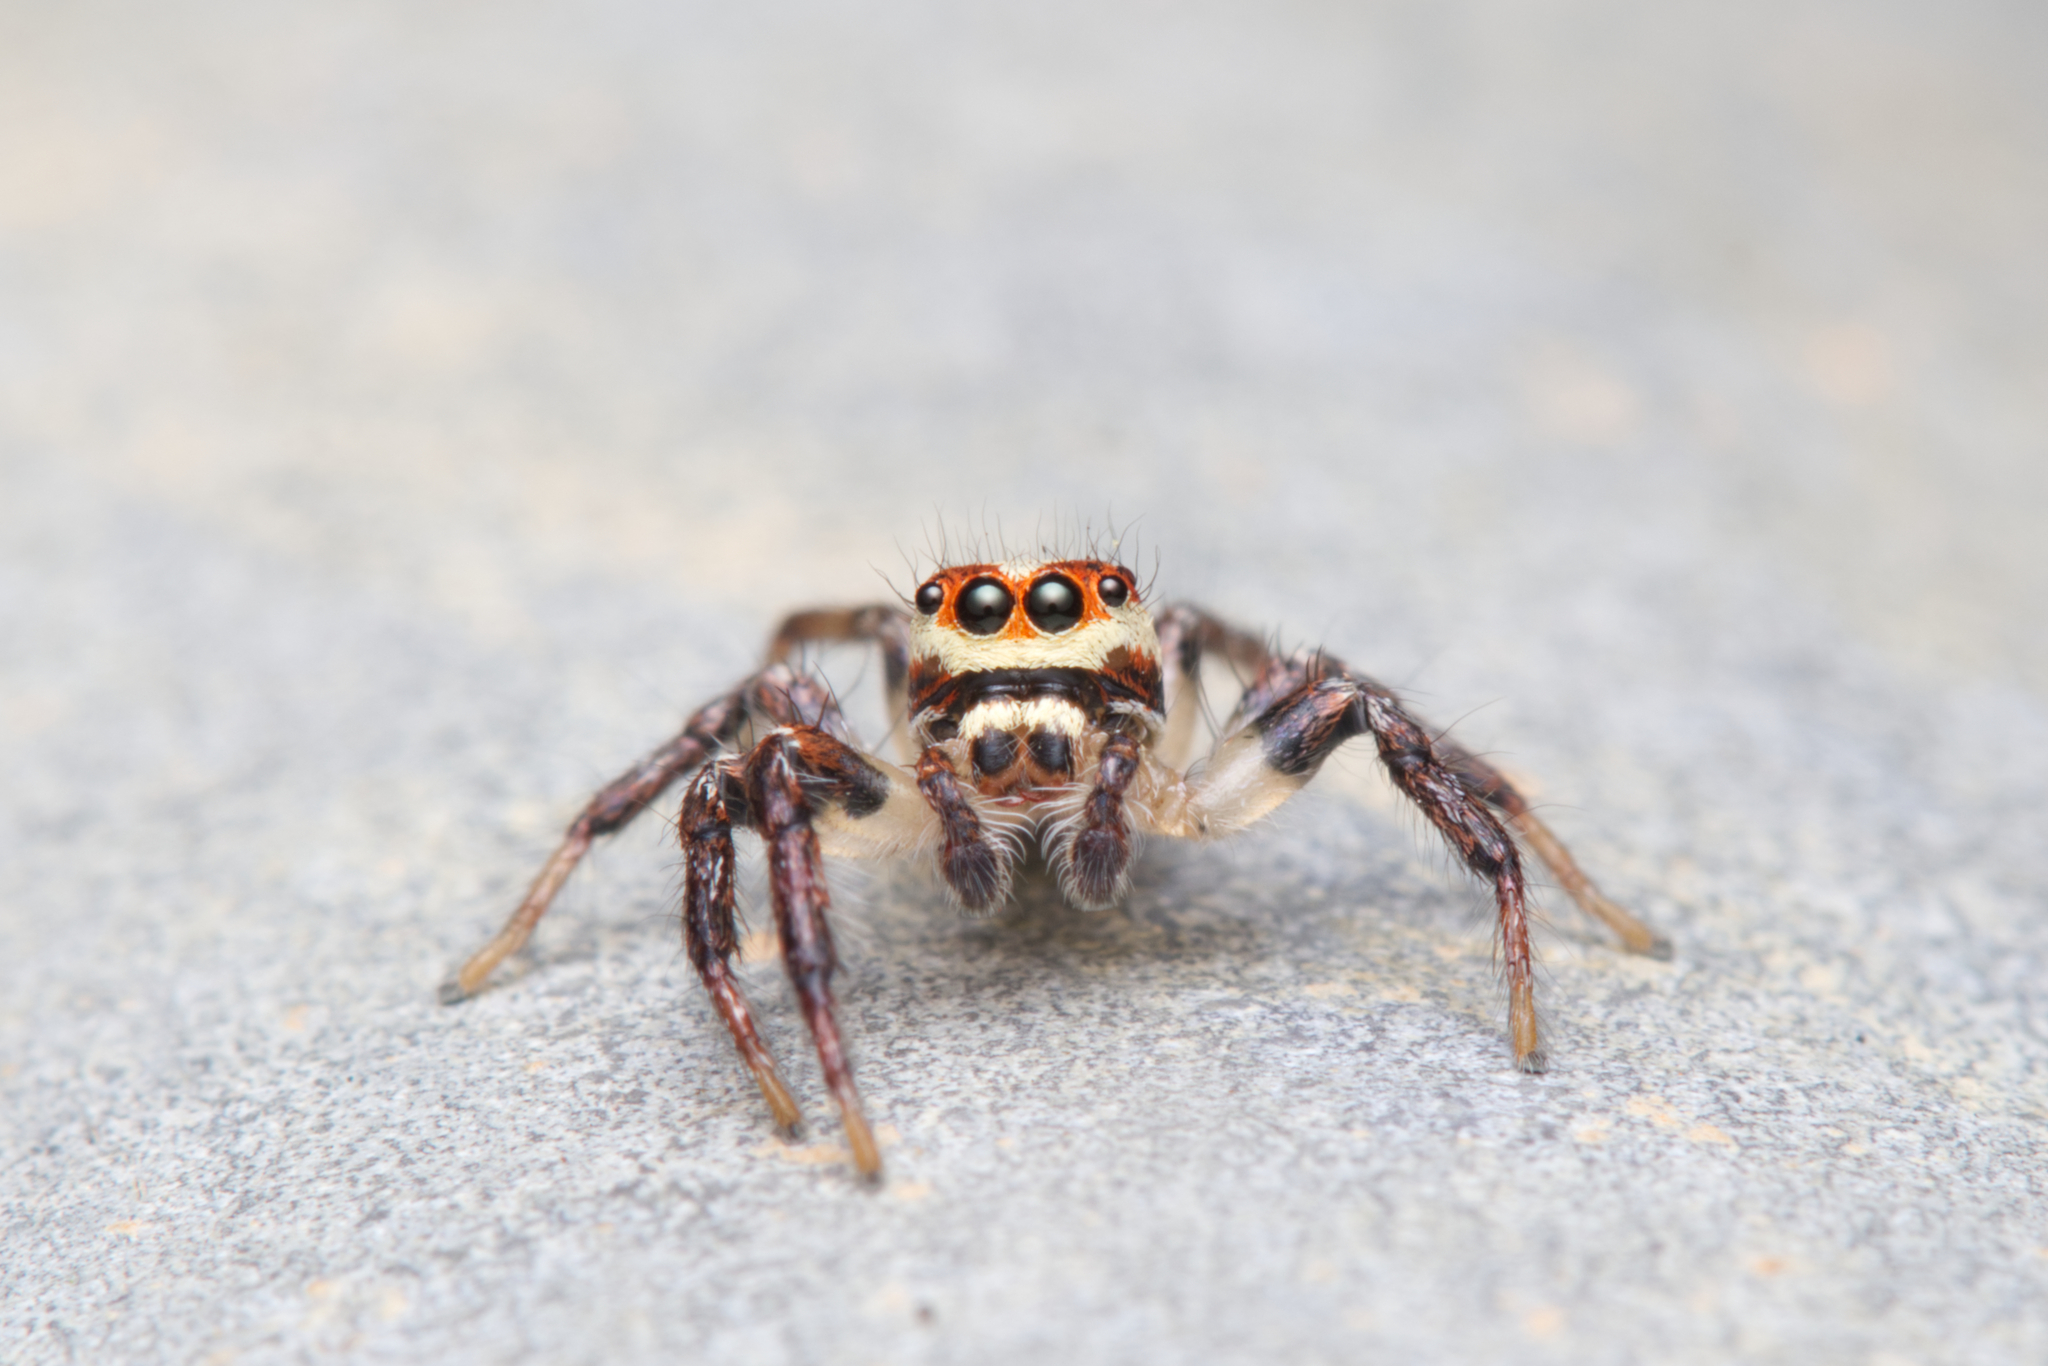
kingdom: Animalia
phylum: Arthropoda
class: Arachnida
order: Araneae
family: Salticidae
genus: Cytaea
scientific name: Cytaea alburna
